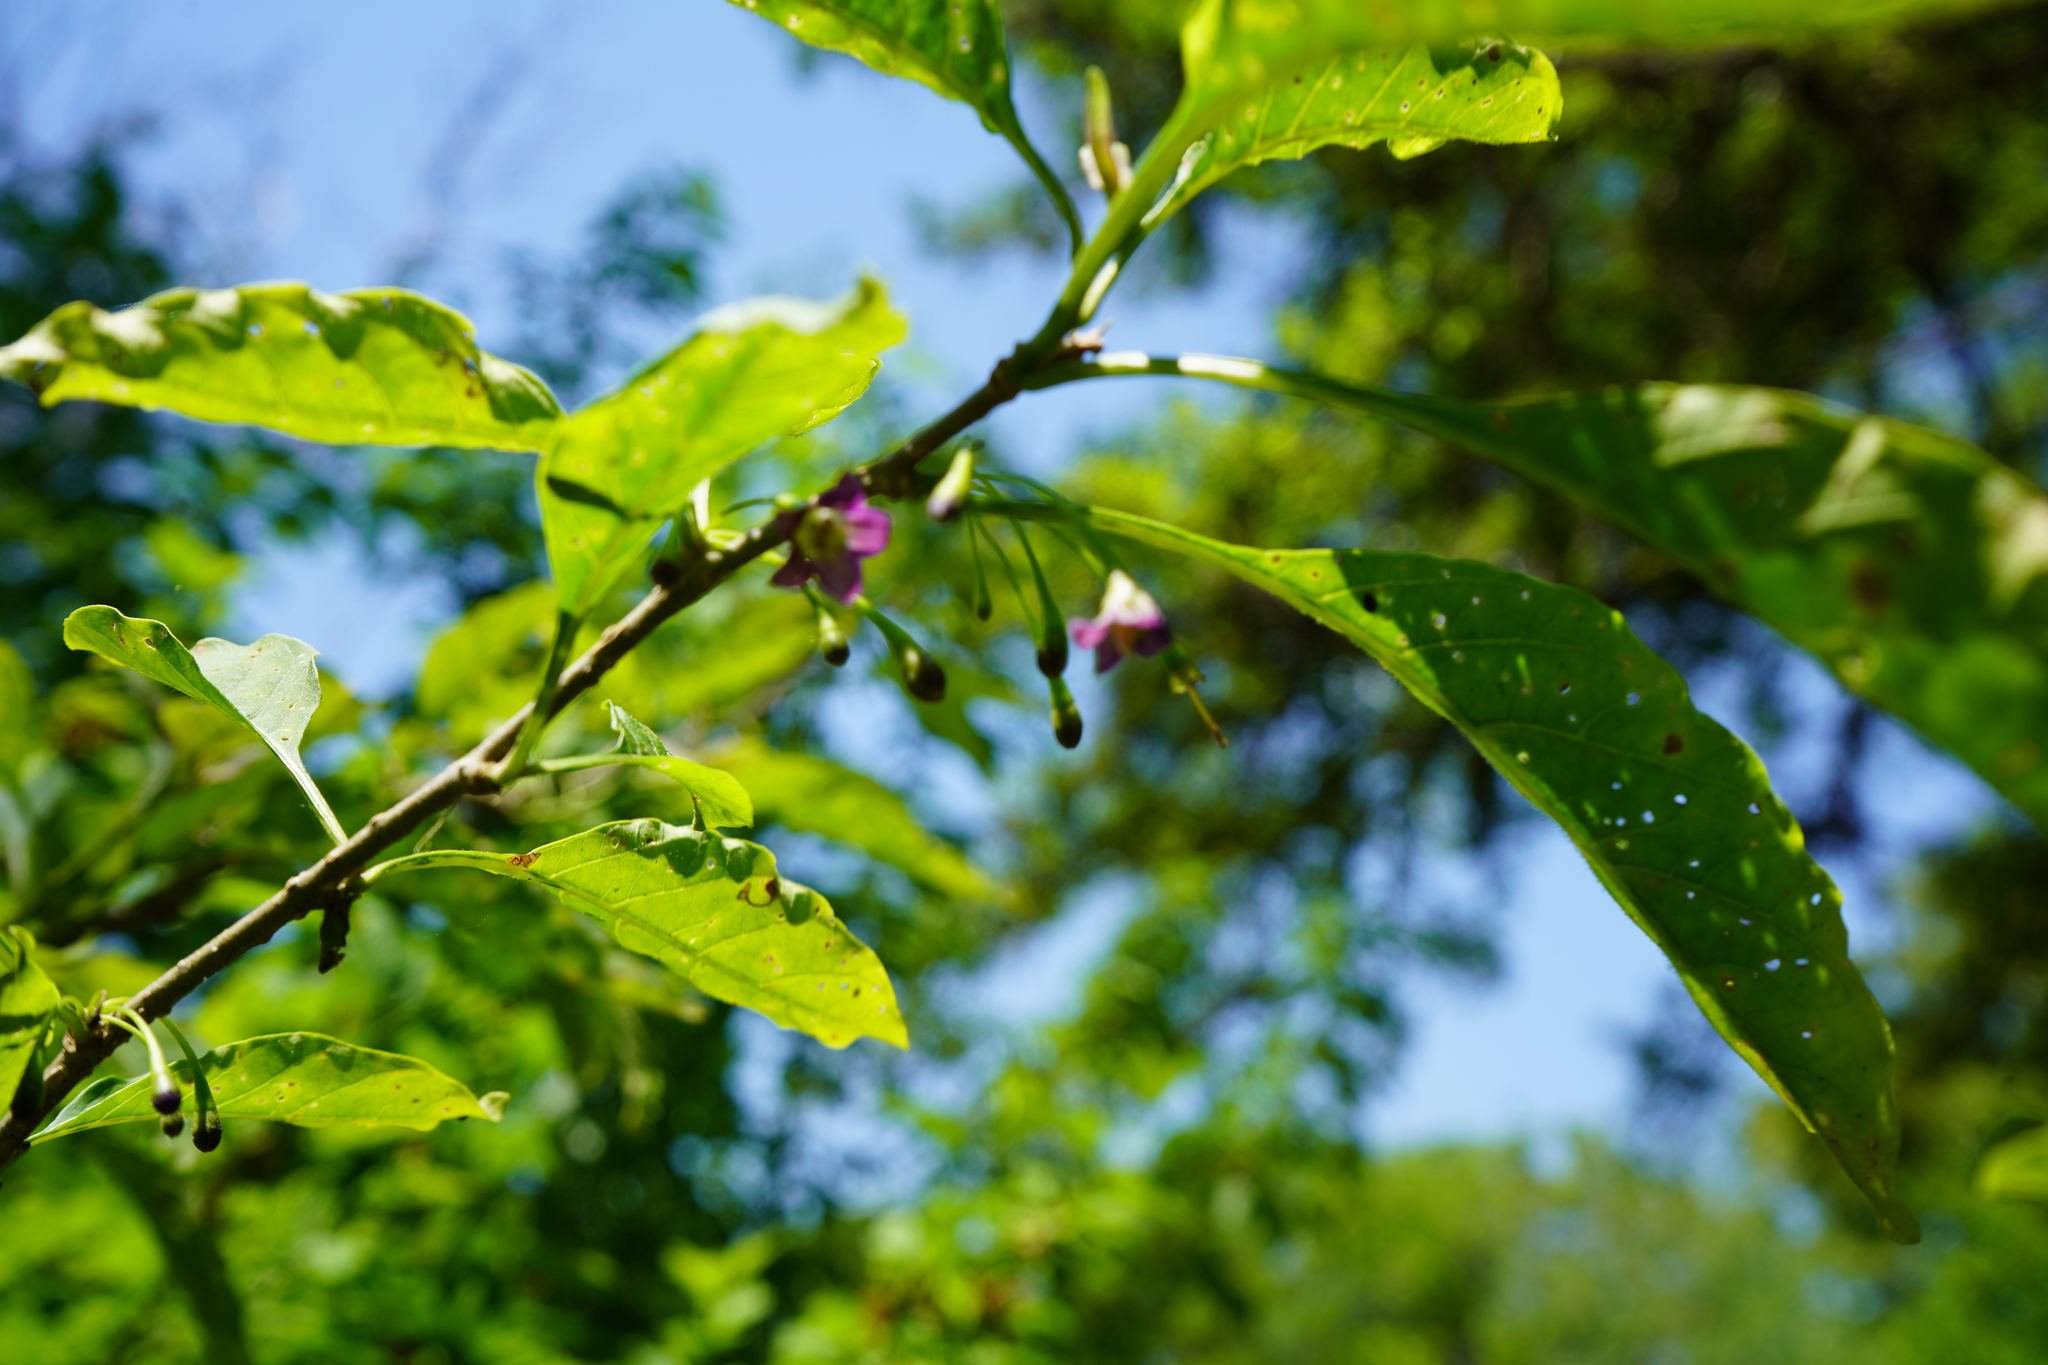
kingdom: Plantae
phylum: Tracheophyta
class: Magnoliopsida
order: Solanales
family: Solanaceae
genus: Vassobia
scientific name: Vassobia breviflora
